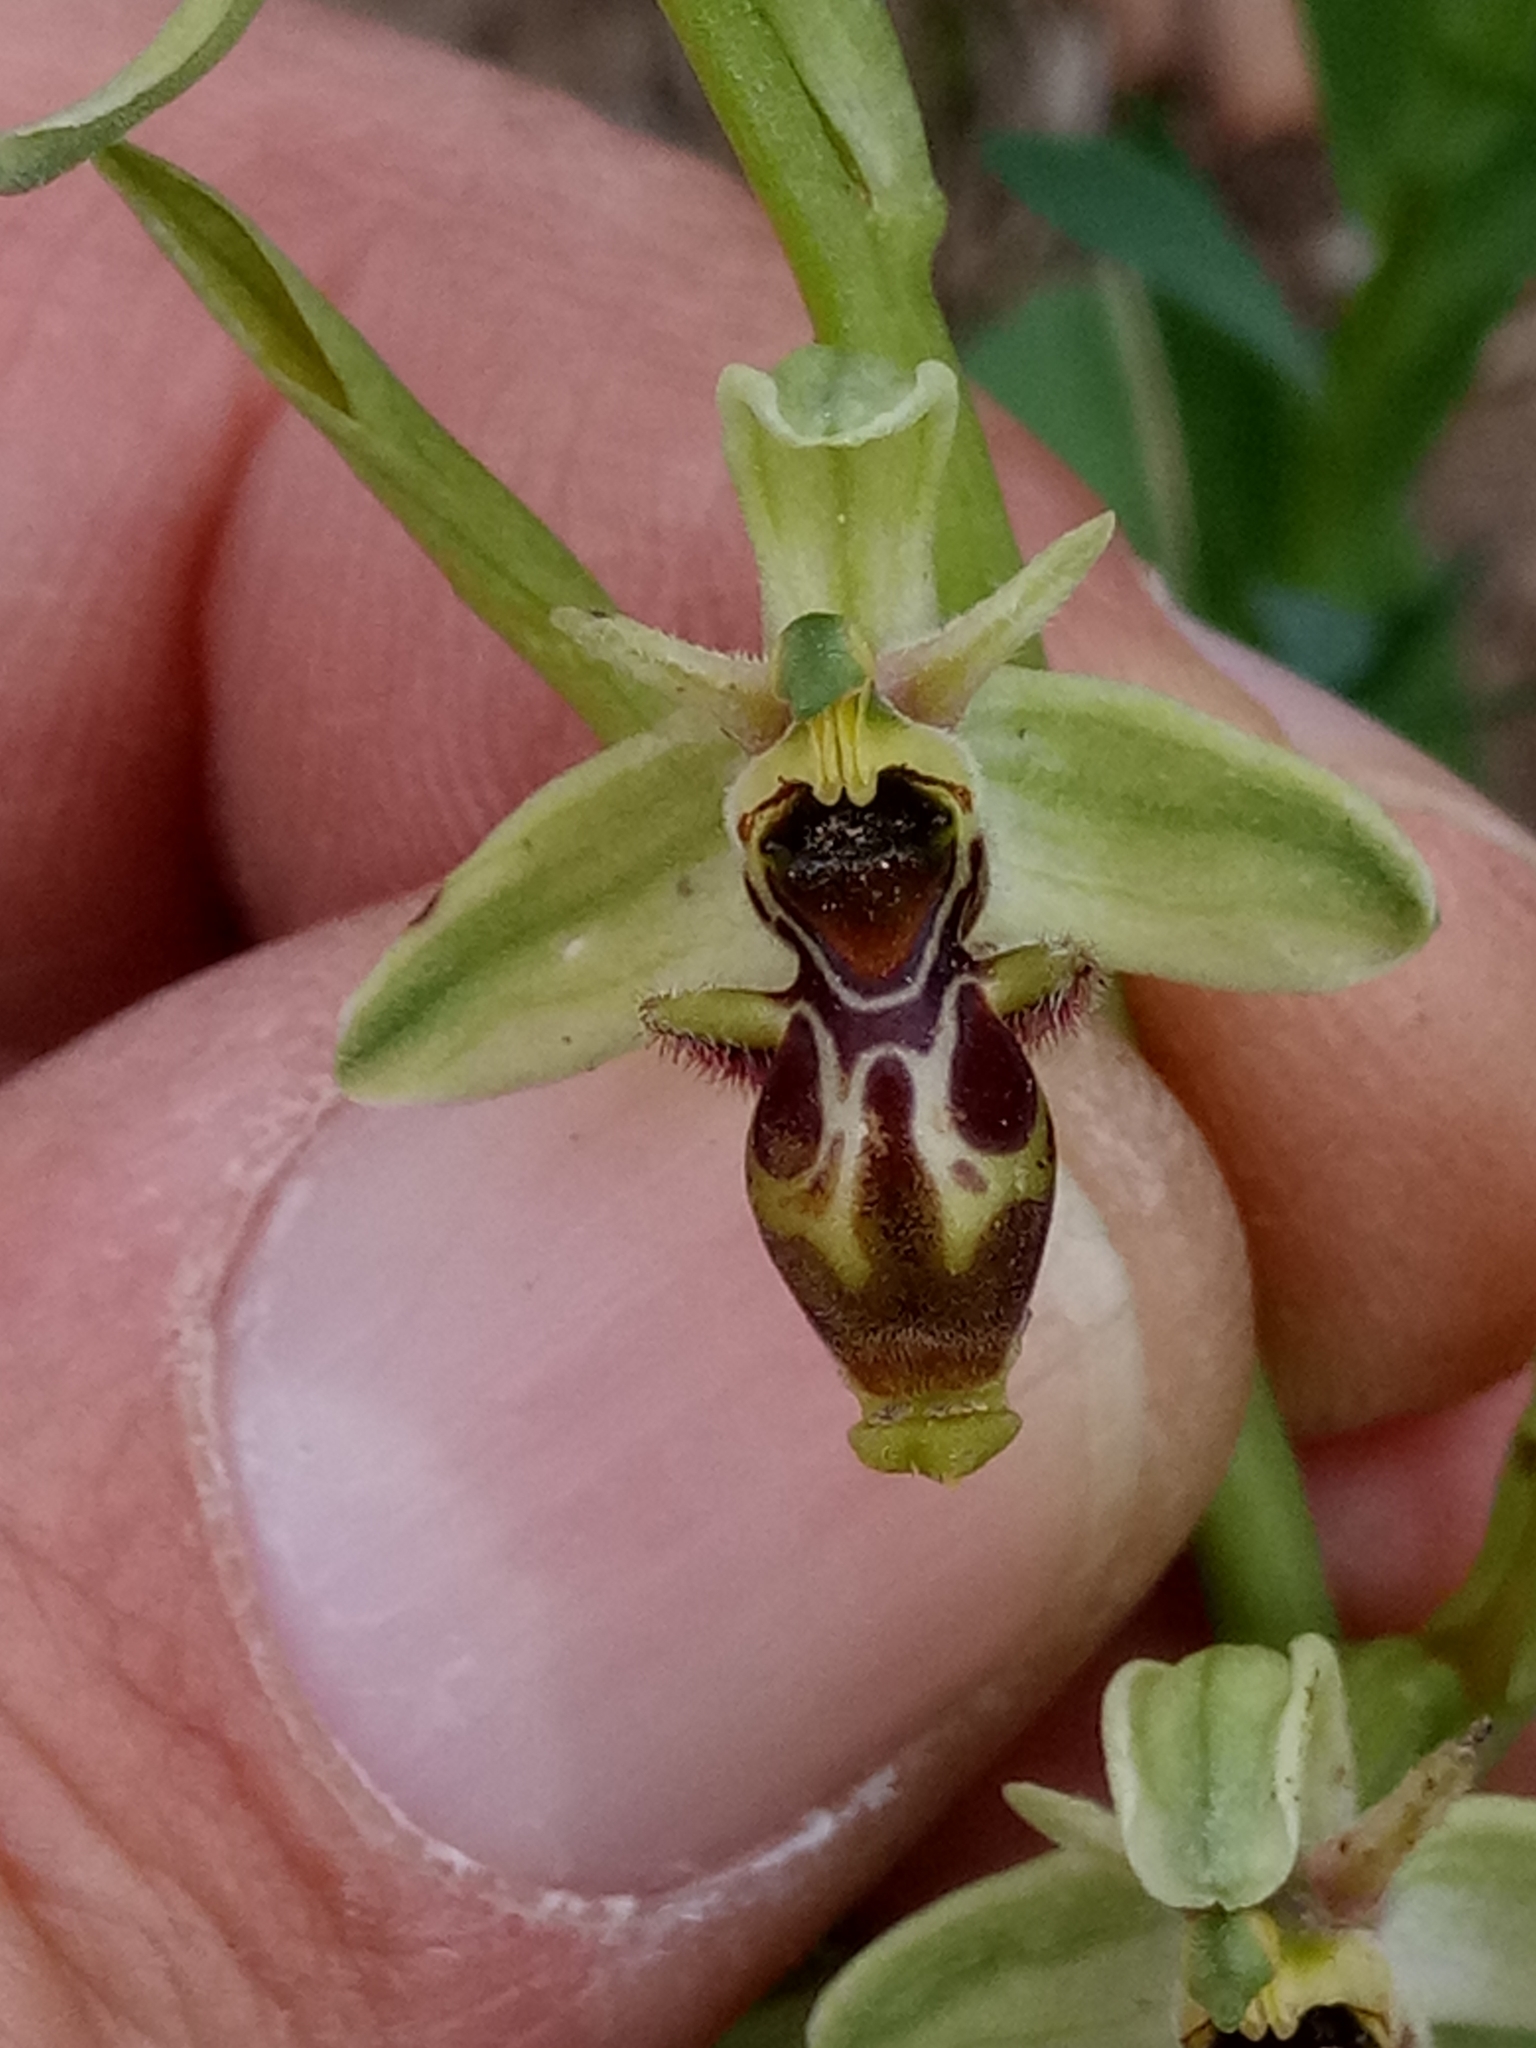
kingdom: Plantae
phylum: Tracheophyta
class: Liliopsida
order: Asparagales
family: Orchidaceae
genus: Ophrys
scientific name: Ophrys scolopax
